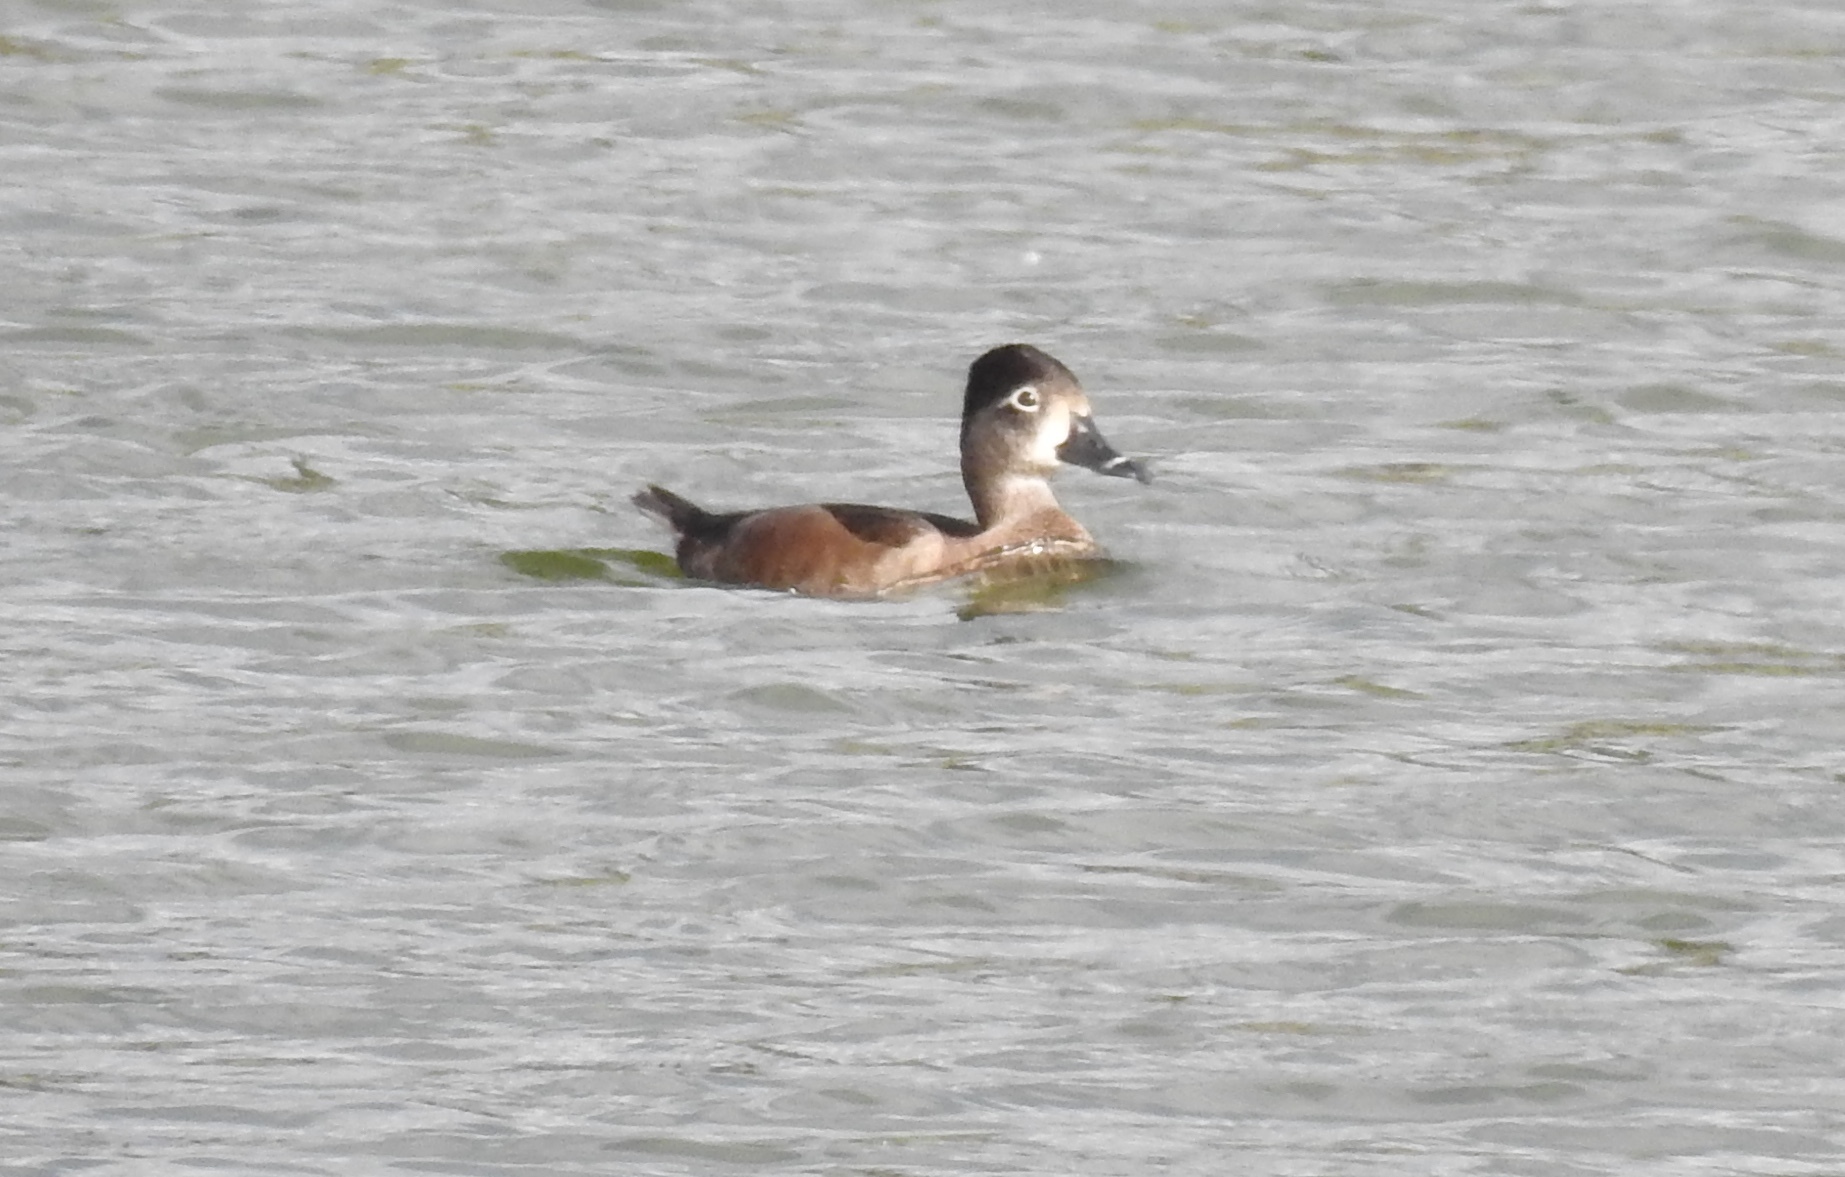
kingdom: Animalia
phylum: Chordata
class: Aves
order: Anseriformes
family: Anatidae
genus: Aythya
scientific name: Aythya collaris
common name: Ring-necked duck
